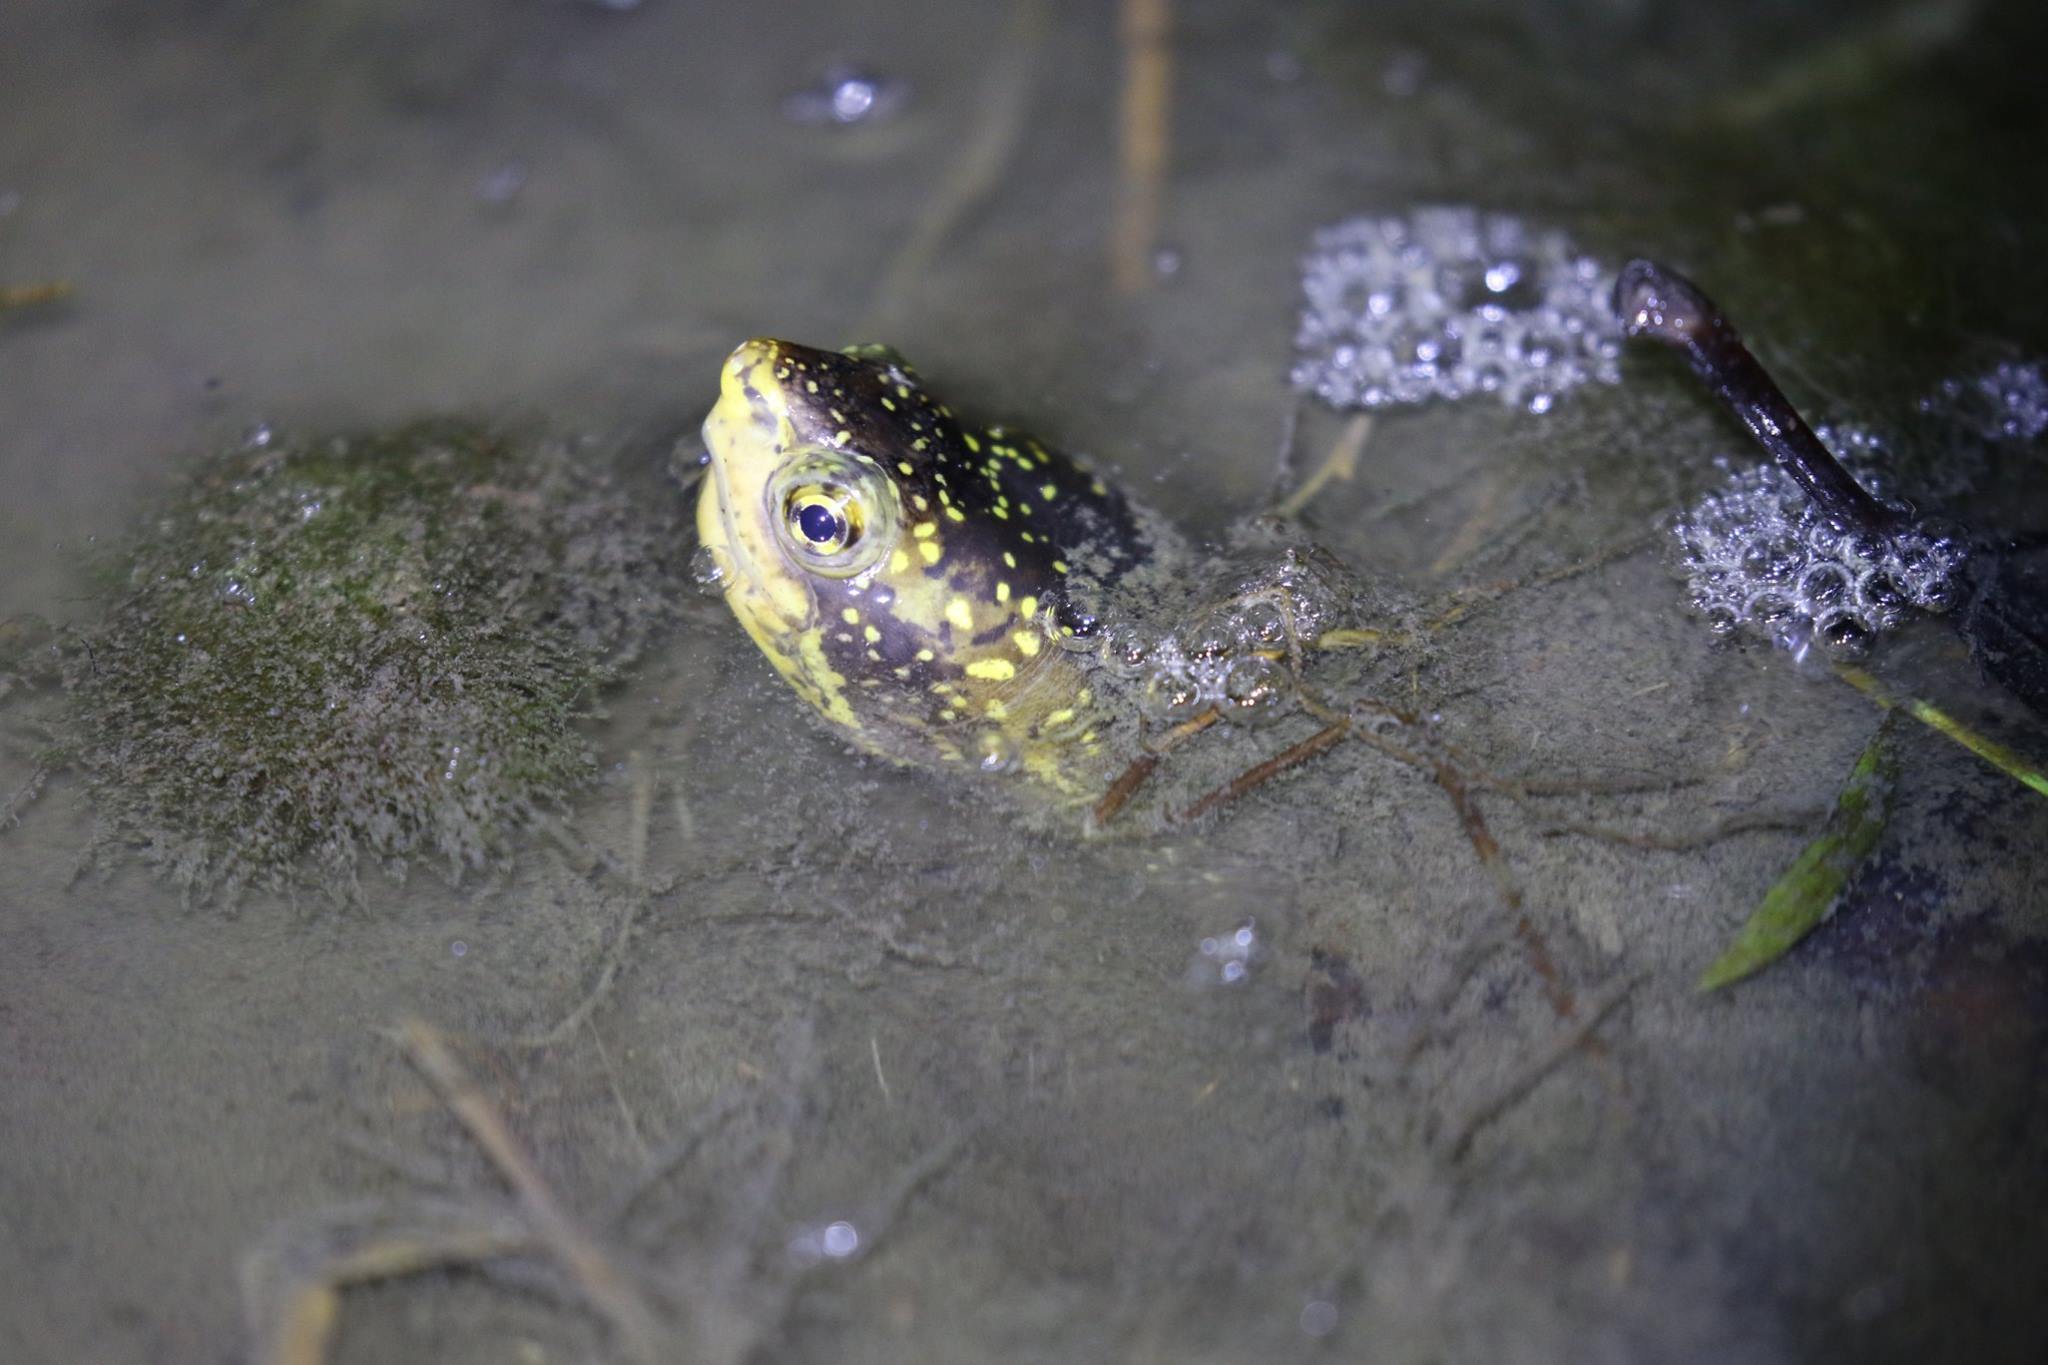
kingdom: Animalia
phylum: Chordata
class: Testudines
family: Kinosternidae
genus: Kinosternon
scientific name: Kinosternon leucostomum
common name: White-lipped mud turtle
